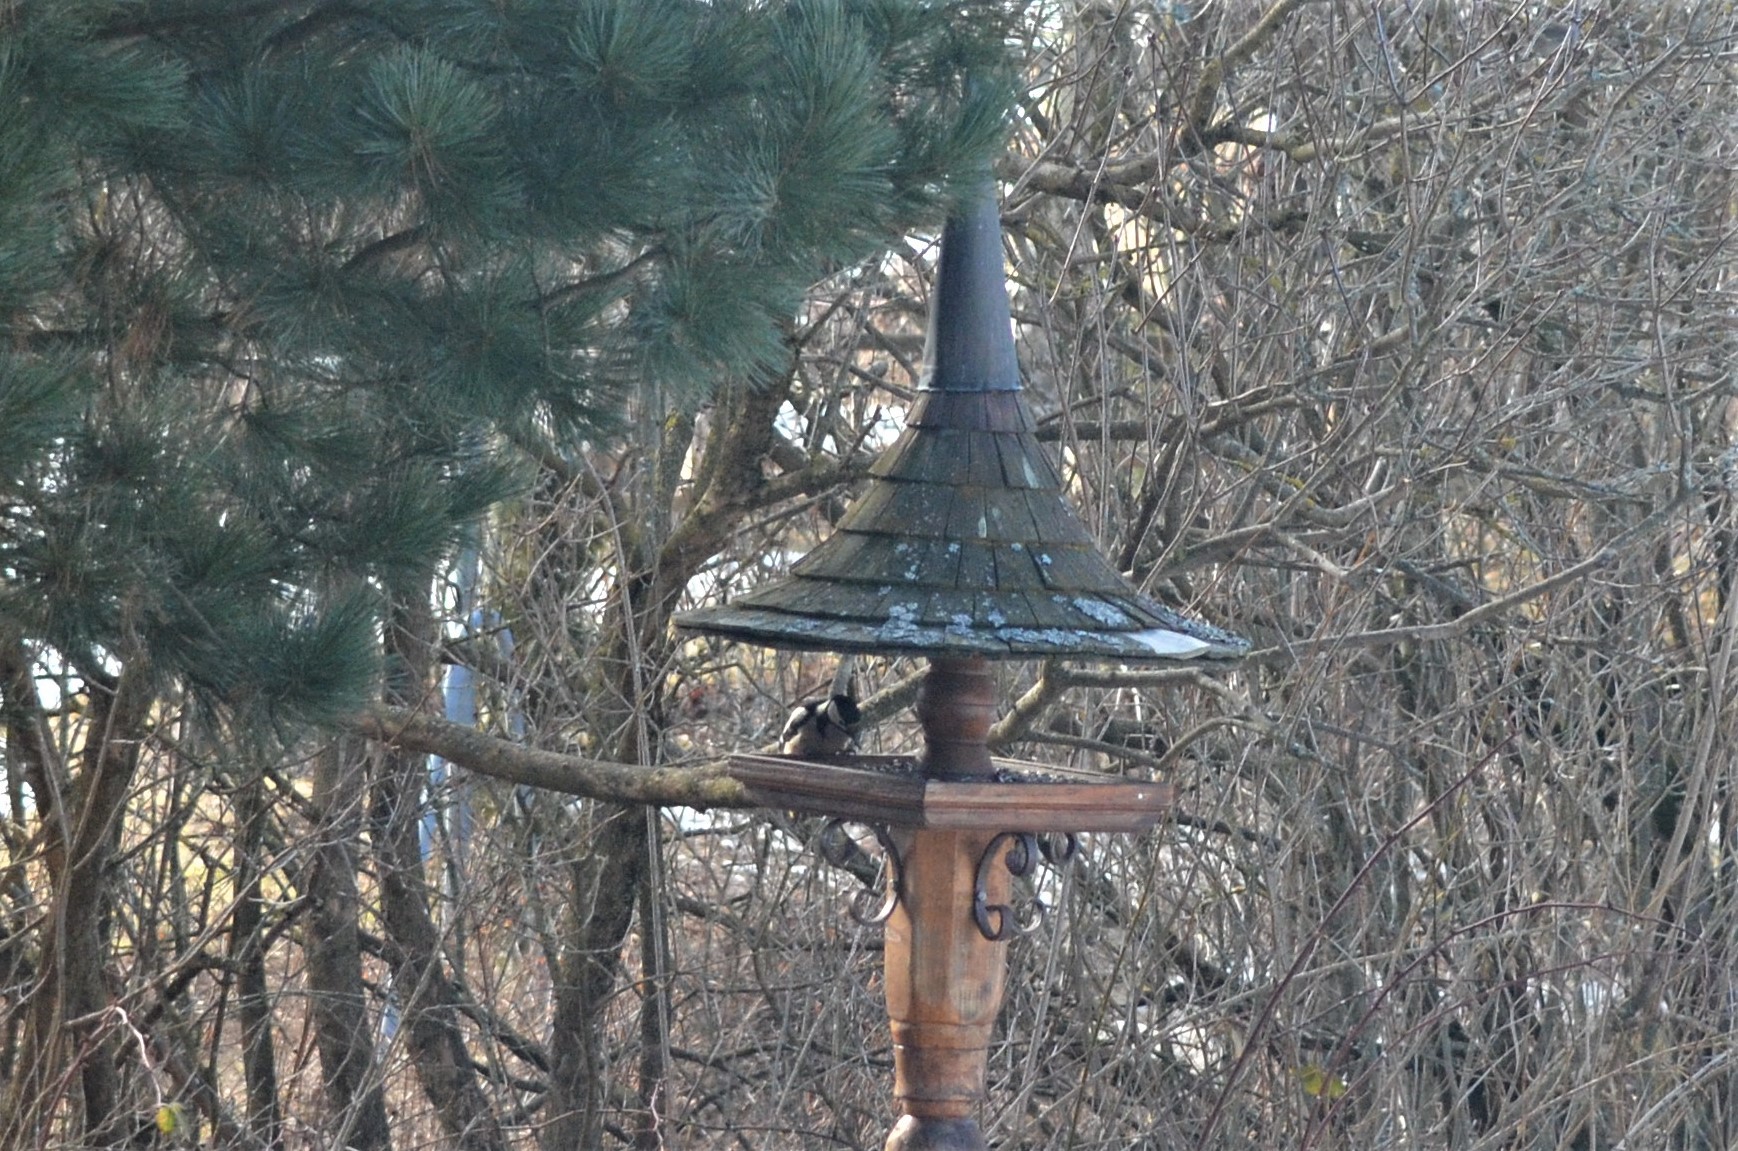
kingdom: Animalia
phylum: Chordata
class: Aves
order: Piciformes
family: Picidae
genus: Dendrocopos
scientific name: Dendrocopos major
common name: Great spotted woodpecker
